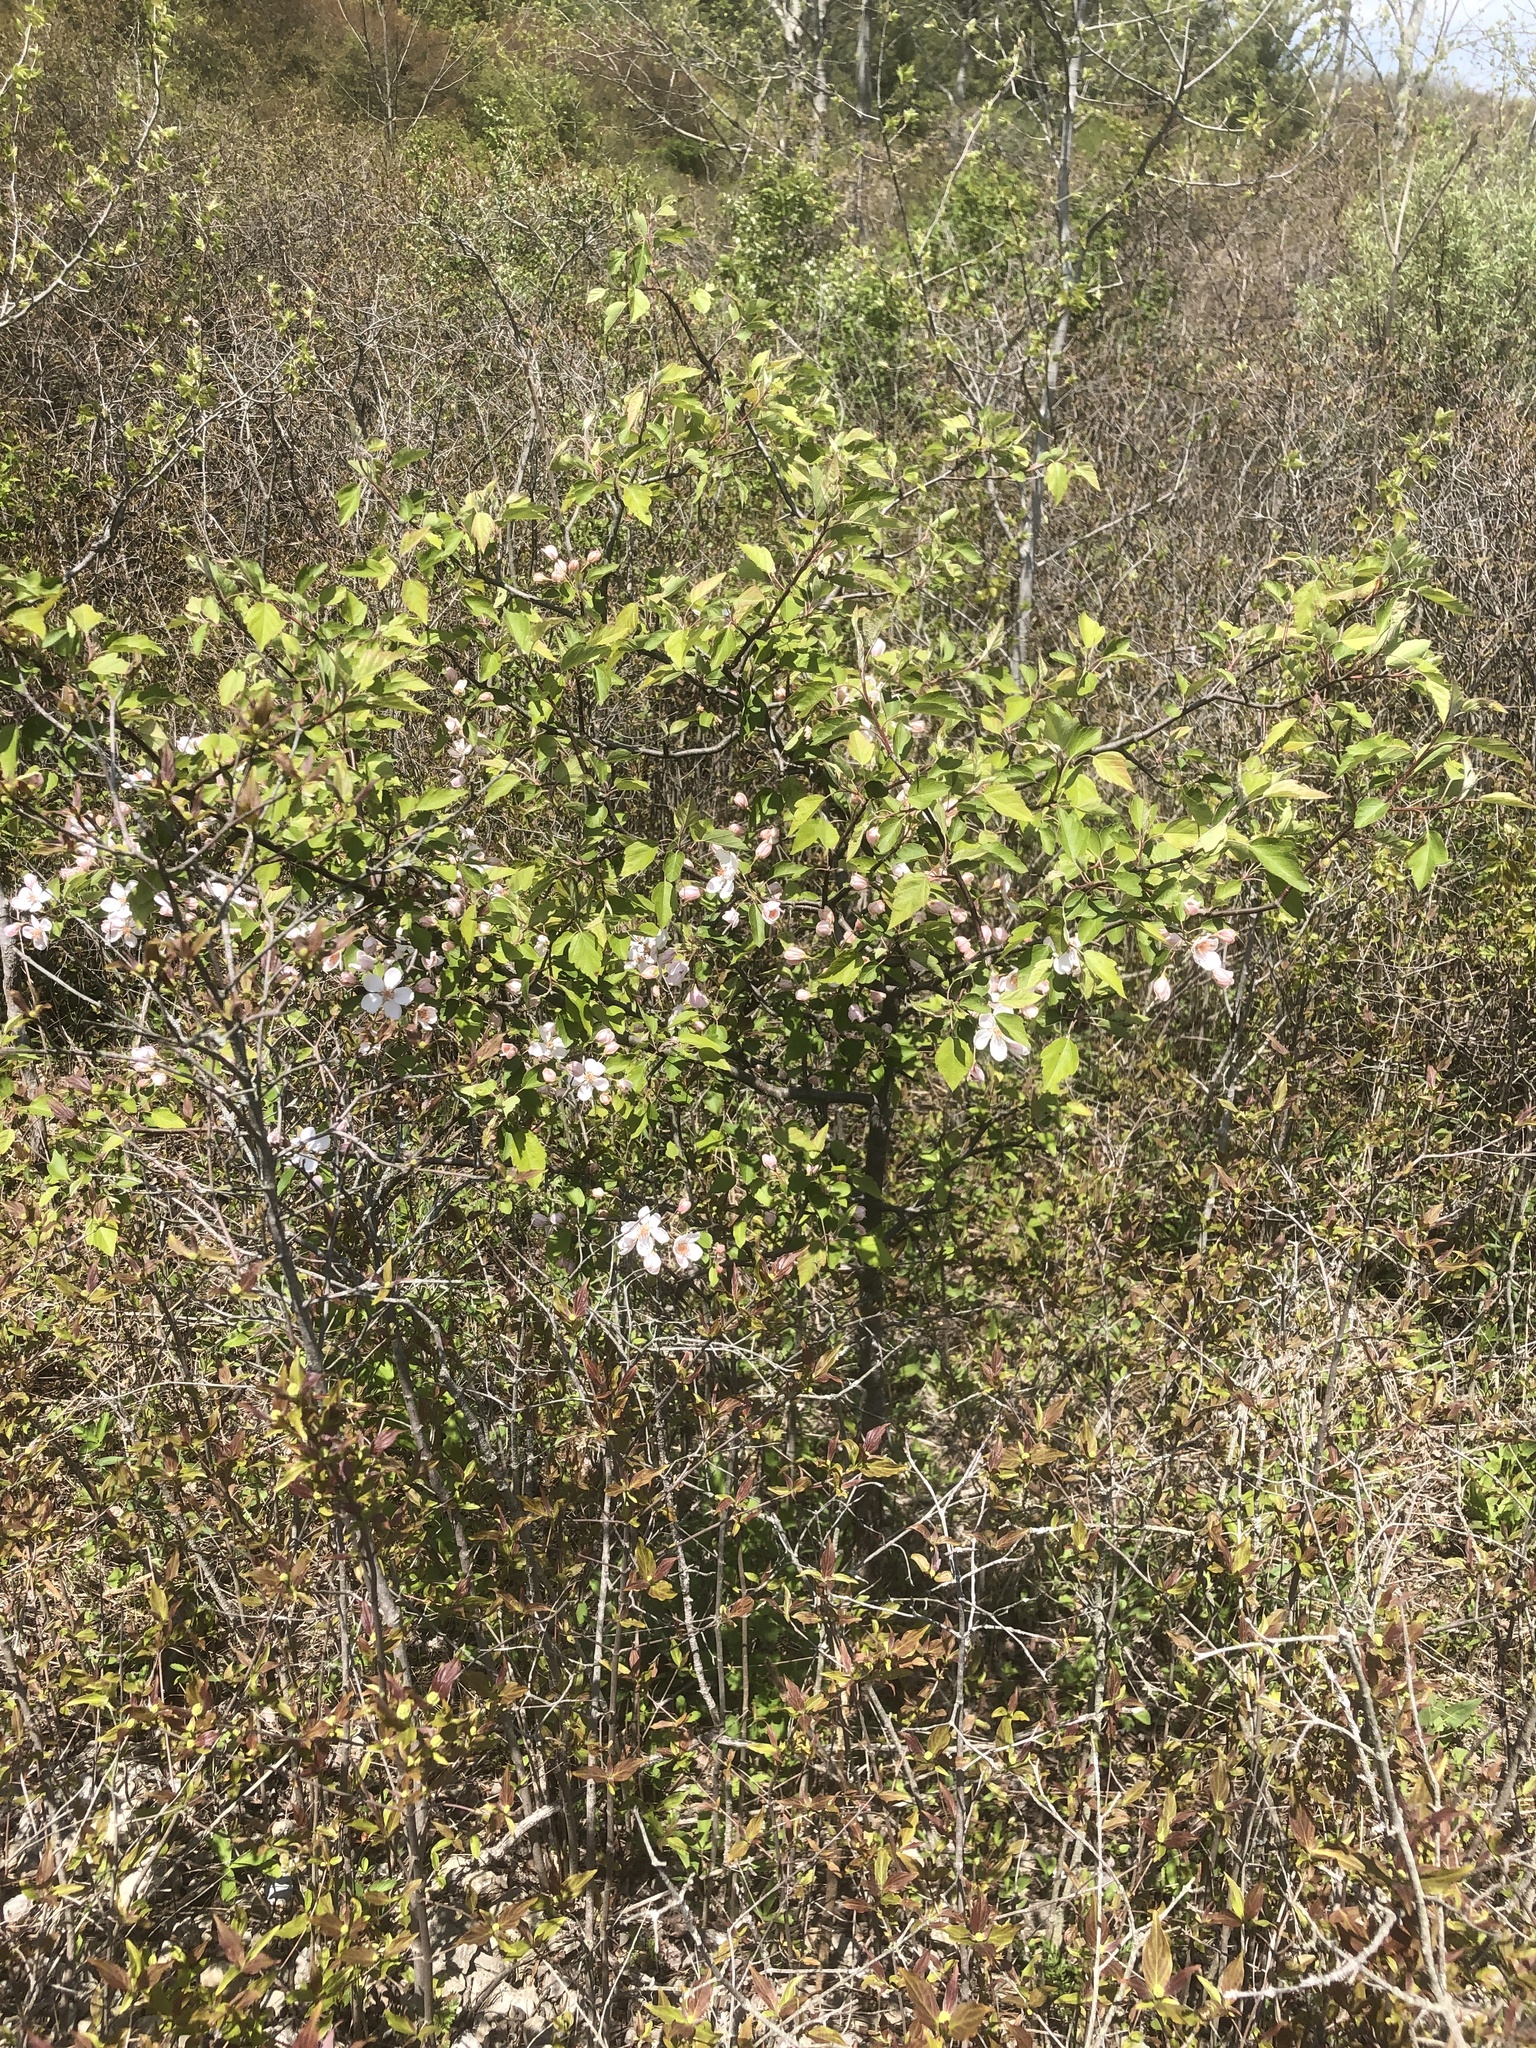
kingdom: Plantae
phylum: Tracheophyta
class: Magnoliopsida
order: Rosales
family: Rosaceae
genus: Malus
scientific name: Malus coronaria
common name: Sweet crab apple
